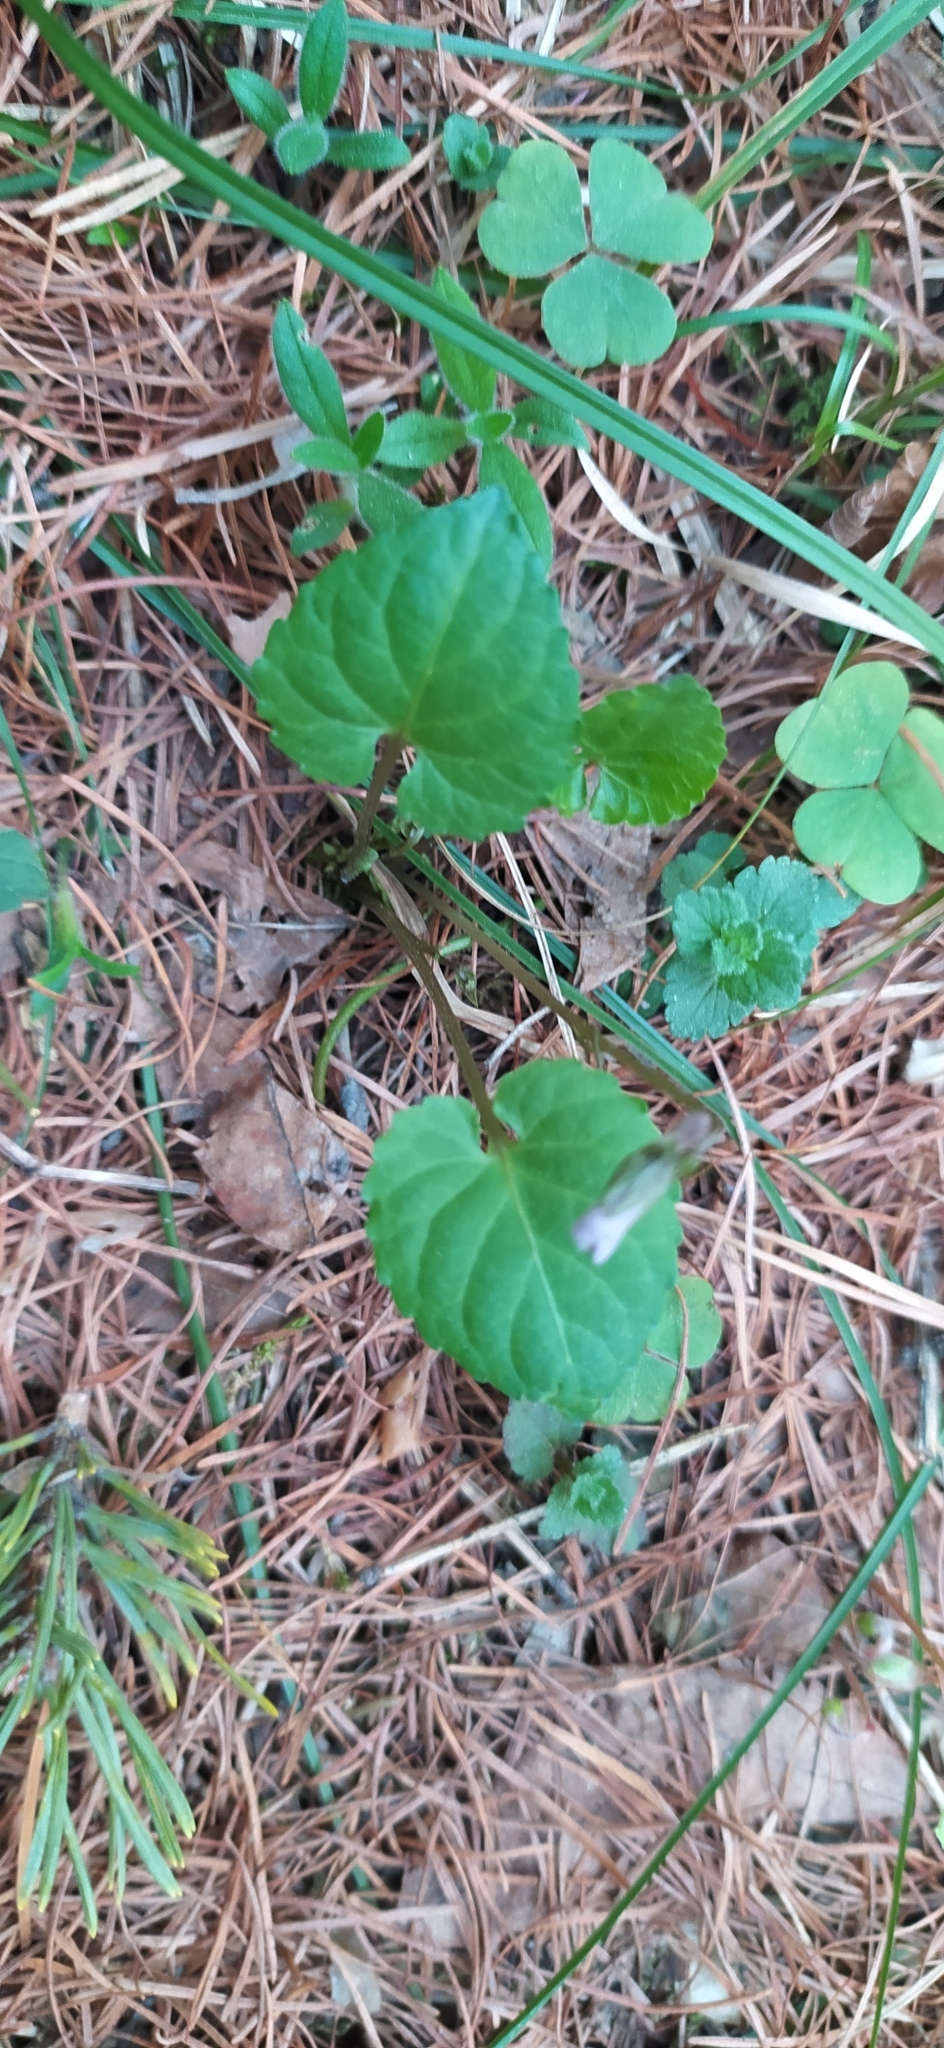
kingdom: Plantae
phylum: Tracheophyta
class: Magnoliopsida
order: Malpighiales
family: Violaceae
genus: Viola
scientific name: Viola selkirkii
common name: Selkirk's violet
